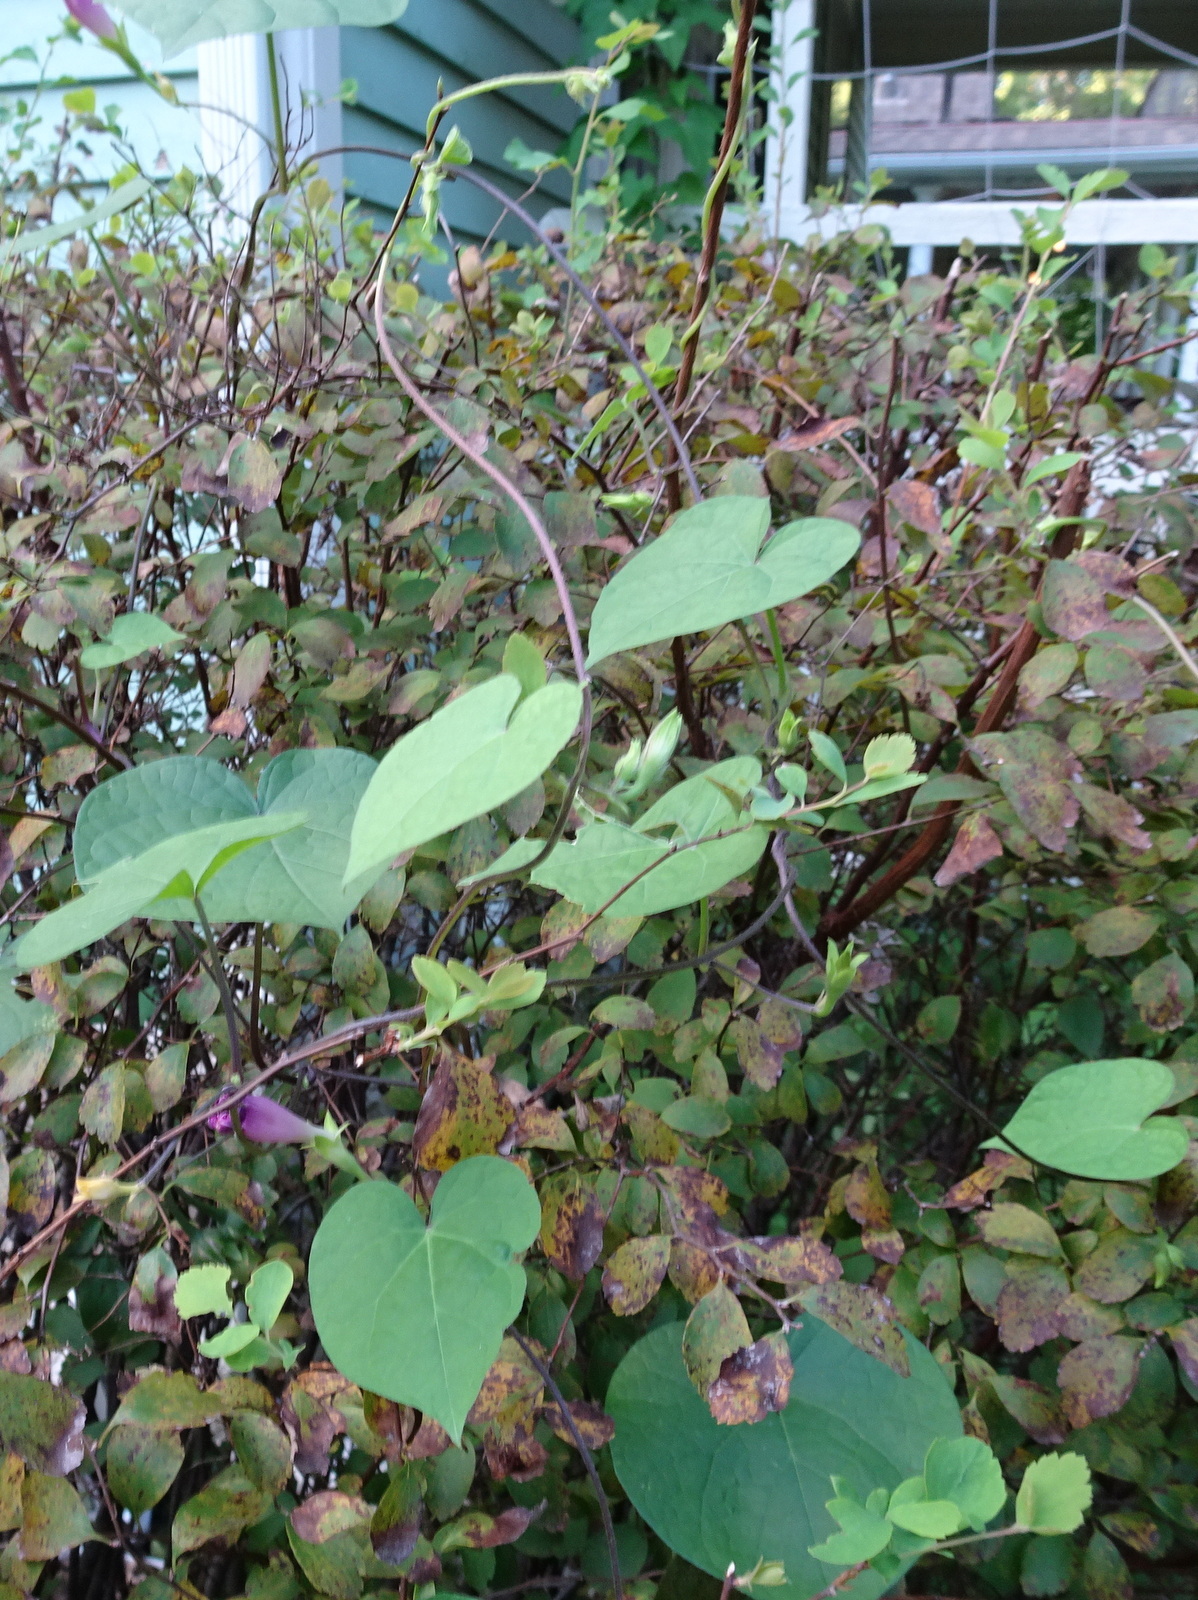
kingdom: Plantae
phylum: Tracheophyta
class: Magnoliopsida
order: Solanales
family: Convolvulaceae
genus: Ipomoea
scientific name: Ipomoea purpurea
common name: Common morning-glory
